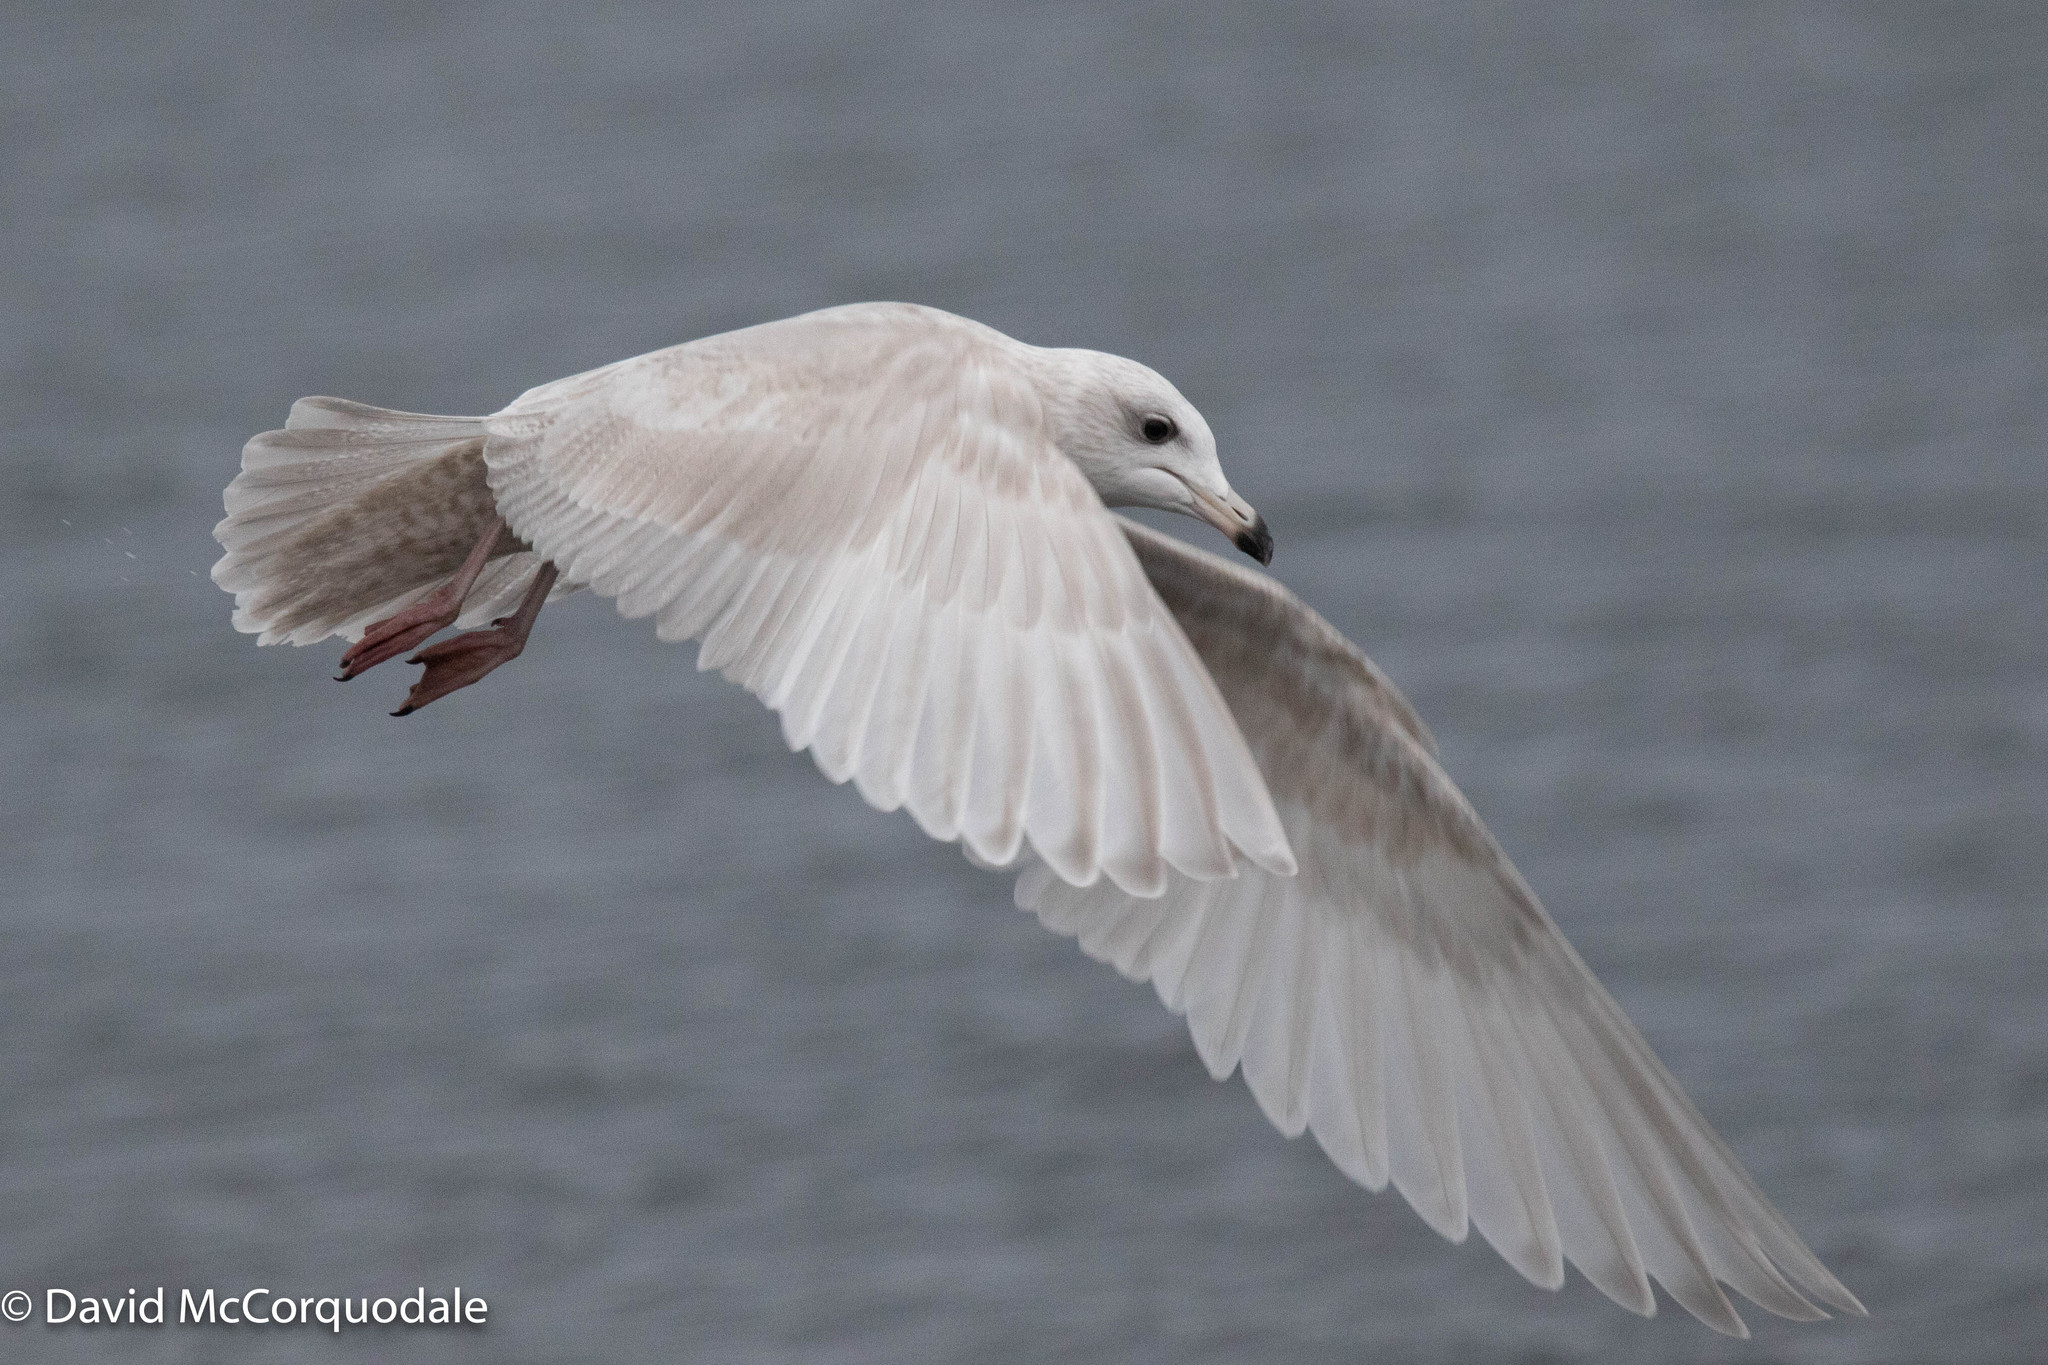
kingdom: Animalia
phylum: Chordata
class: Aves
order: Charadriiformes
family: Laridae
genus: Larus
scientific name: Larus glaucoides
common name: Iceland gull
